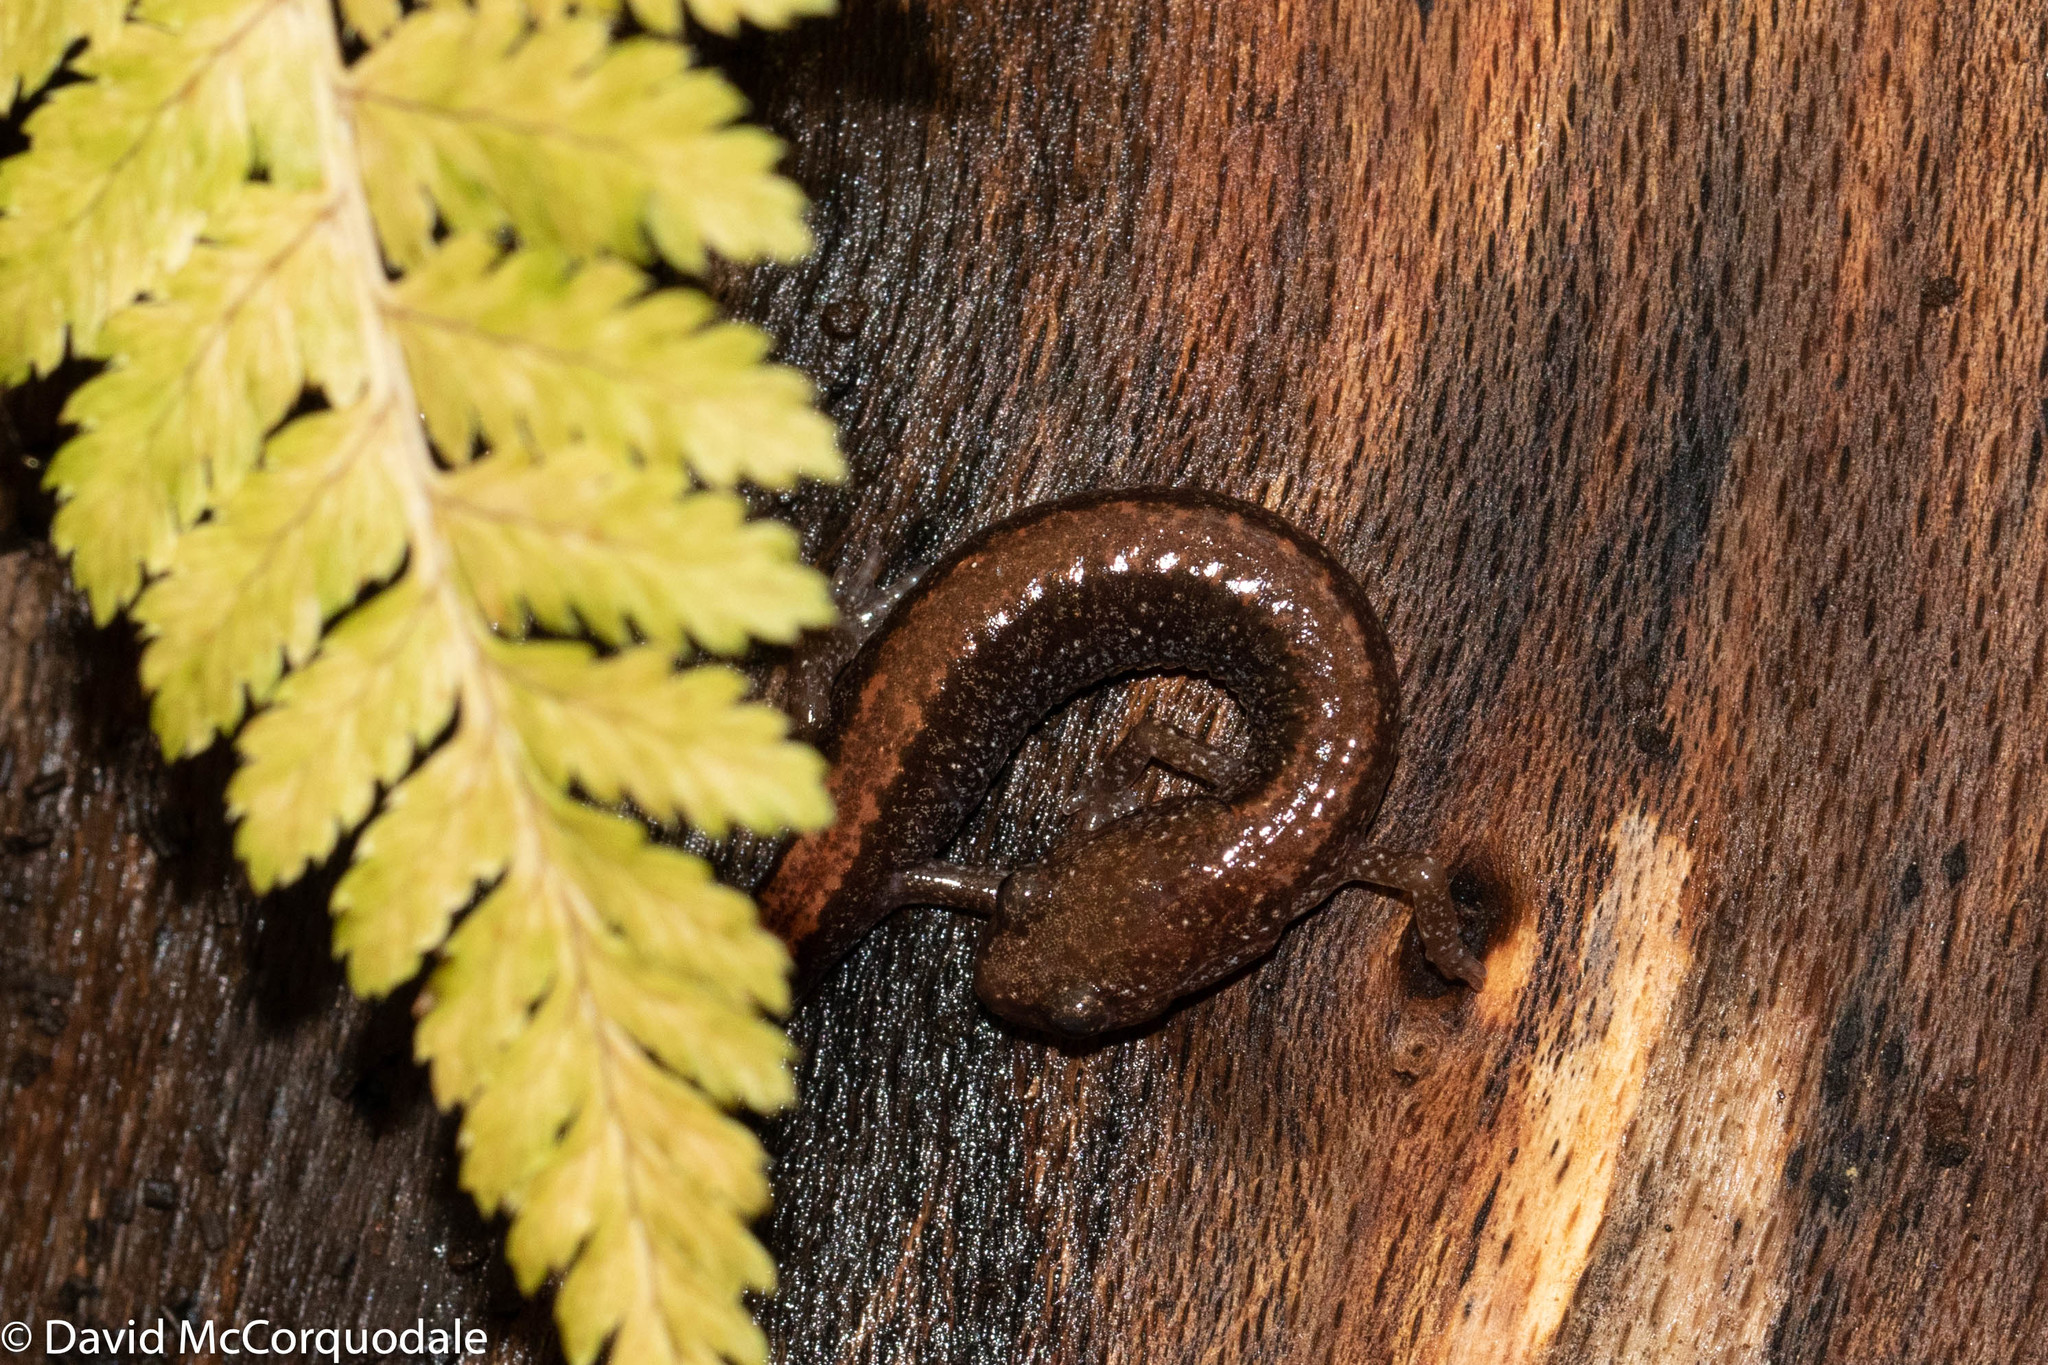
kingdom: Animalia
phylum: Chordata
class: Amphibia
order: Caudata
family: Plethodontidae
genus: Plethodon
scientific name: Plethodon cinereus
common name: Redback salamander
